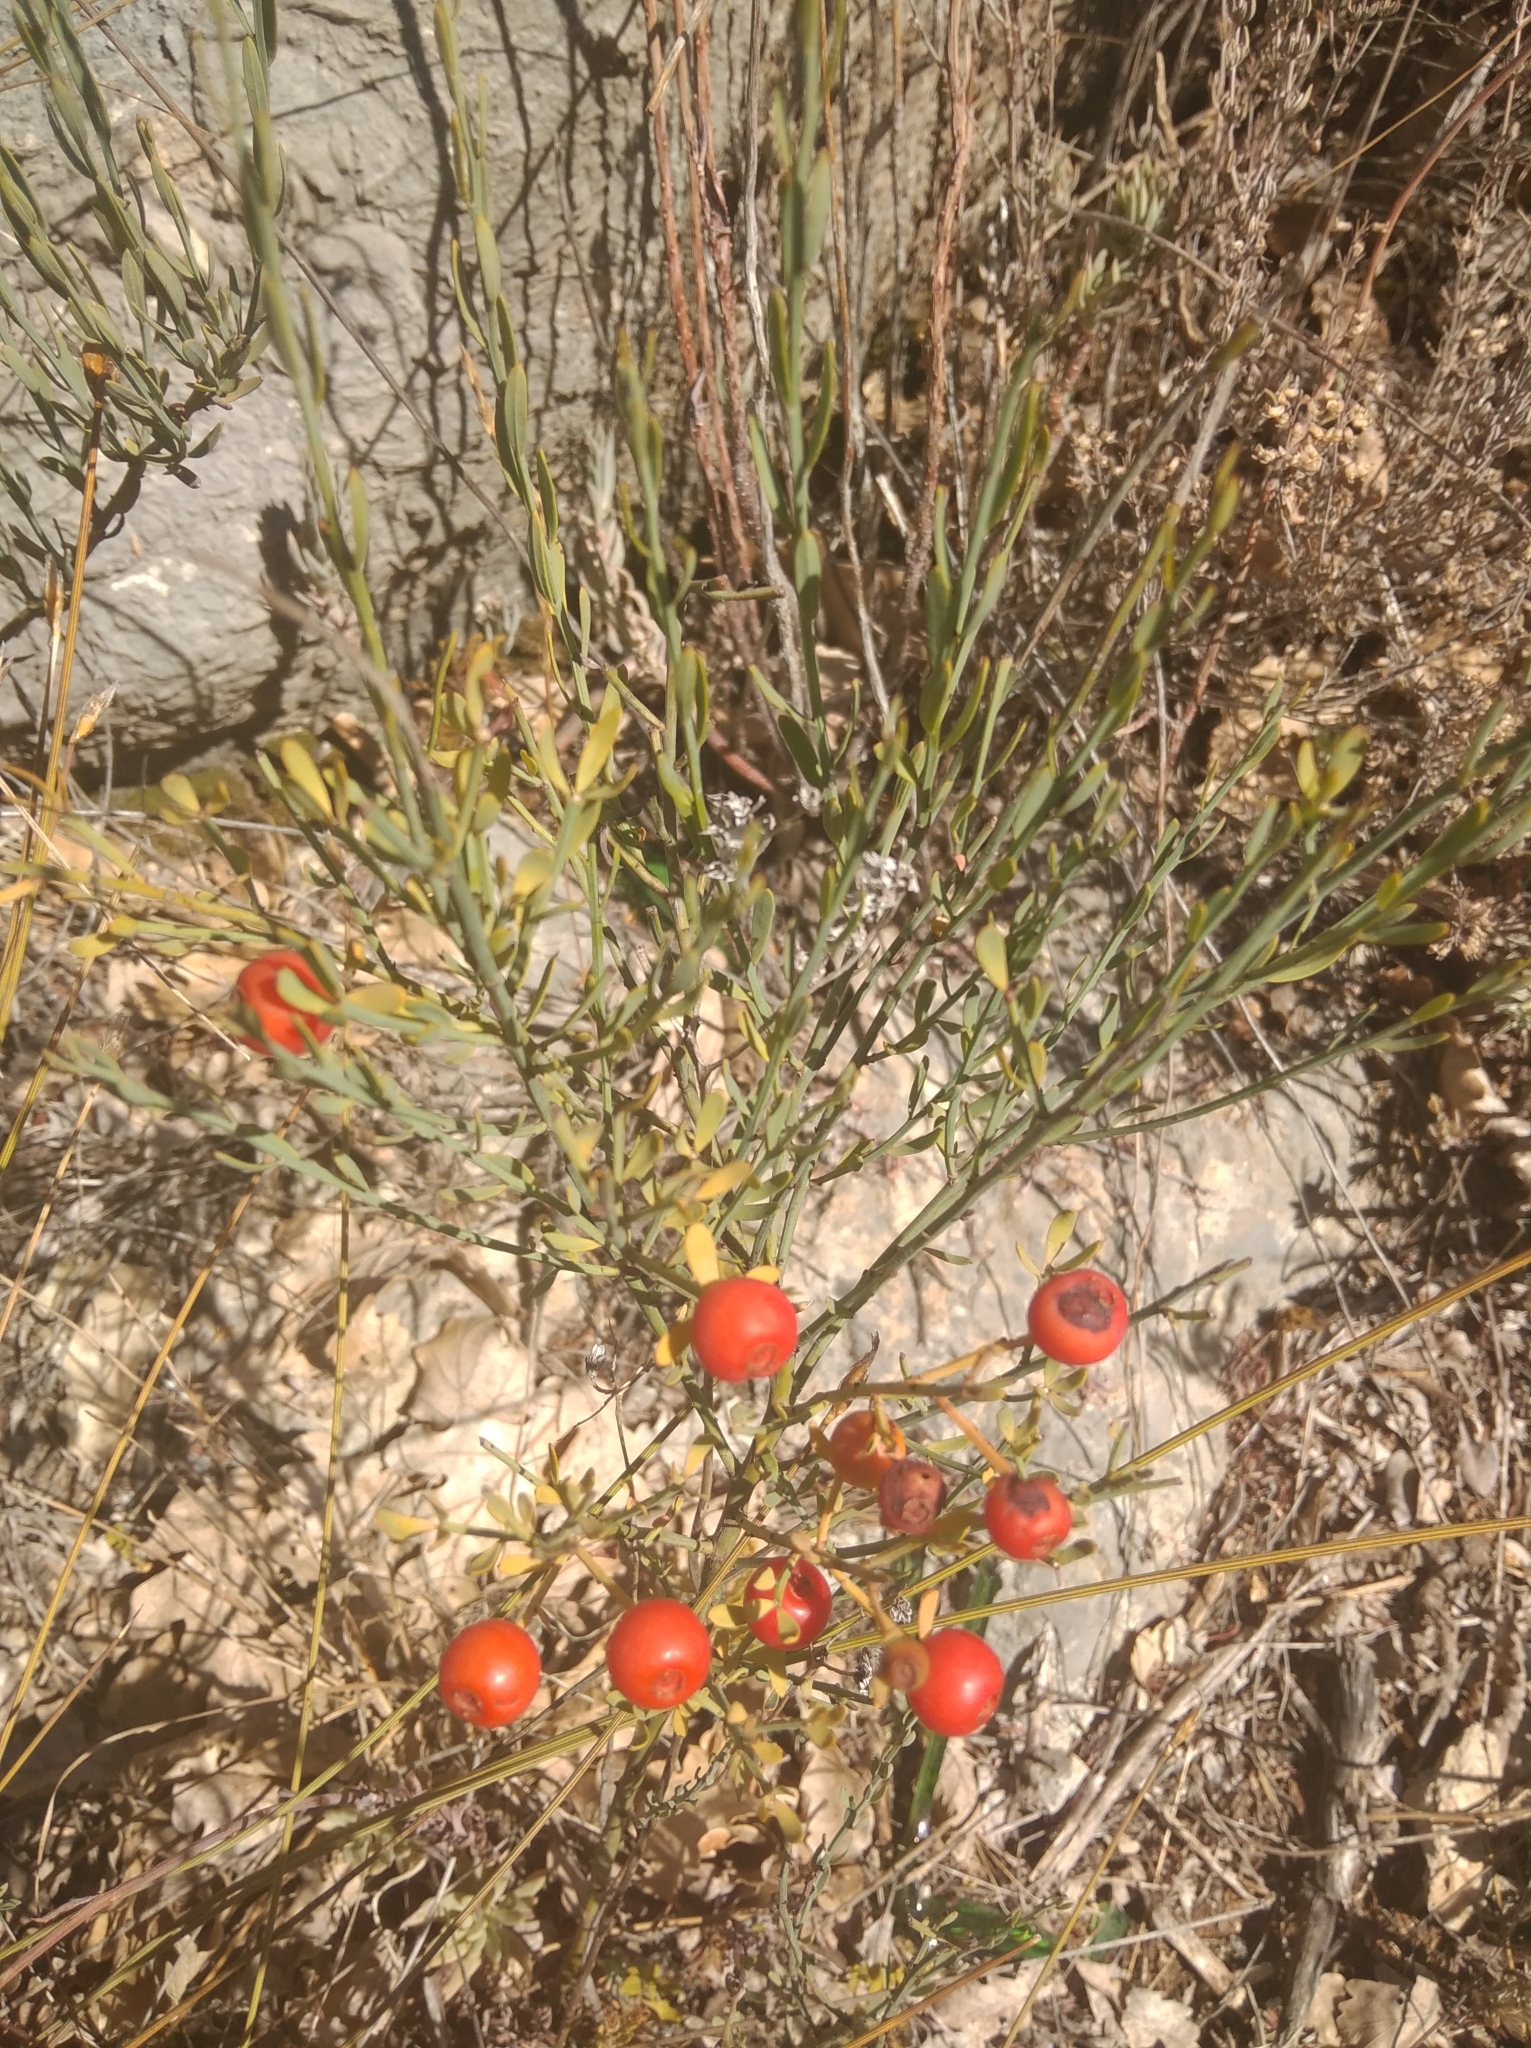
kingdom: Plantae
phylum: Tracheophyta
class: Magnoliopsida
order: Santalales
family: Santalaceae
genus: Osyris
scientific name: Osyris alba
